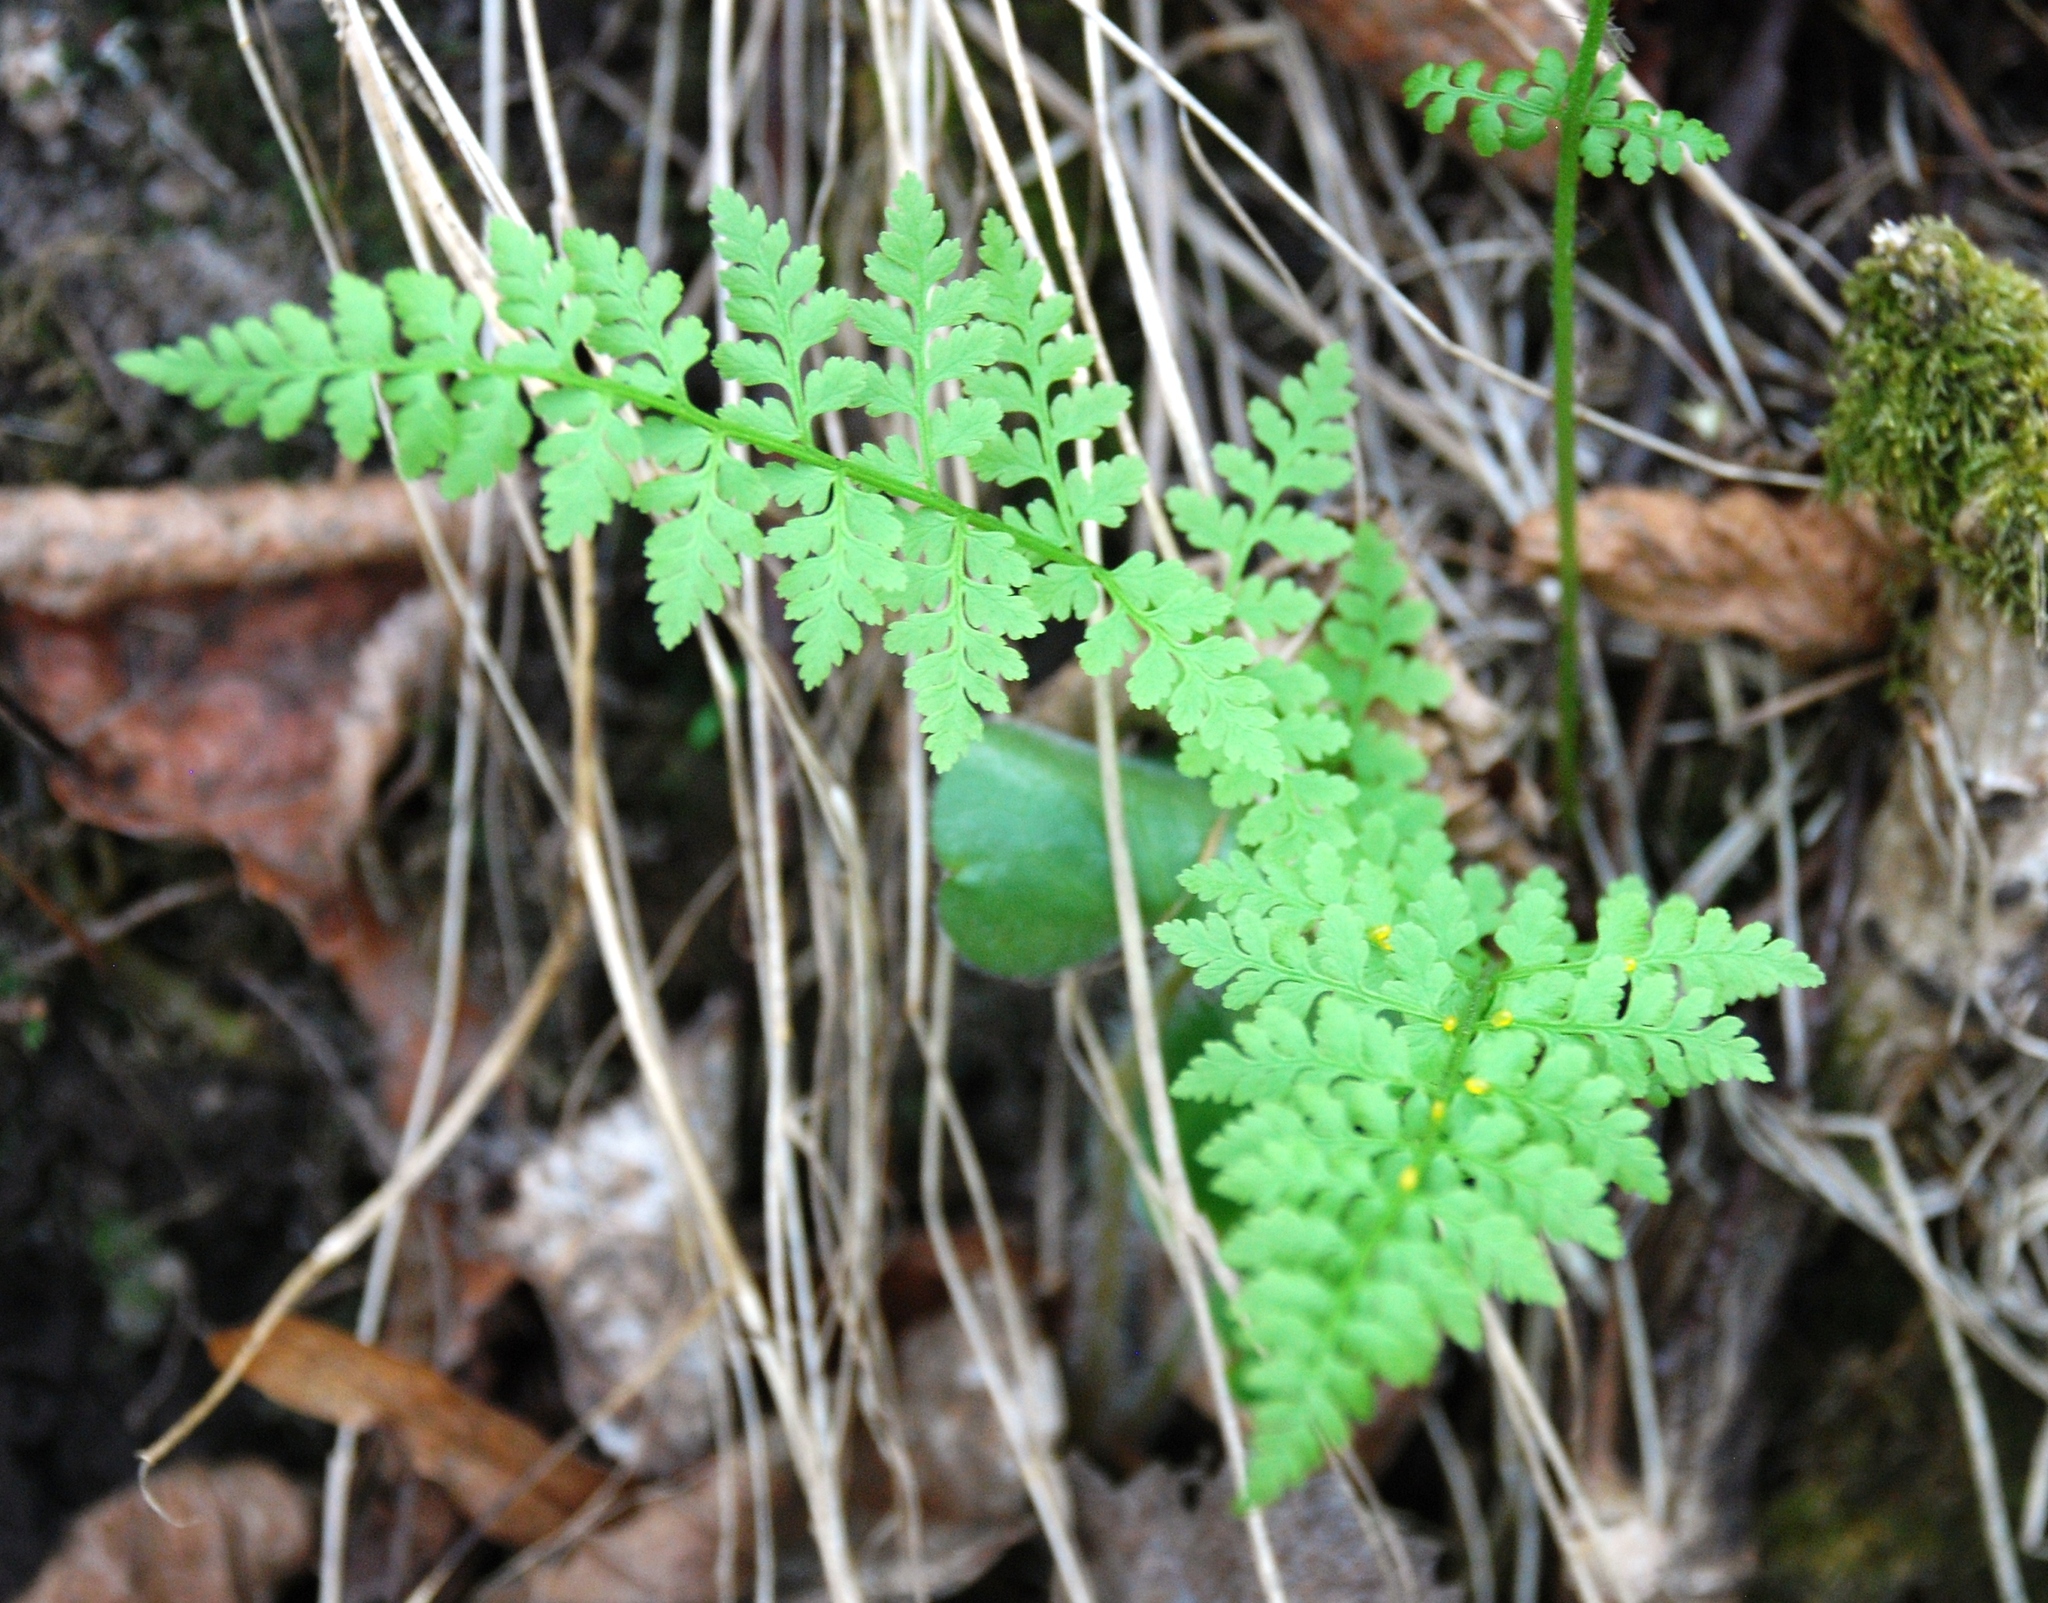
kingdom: Plantae
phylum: Tracheophyta
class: Polypodiopsida
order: Polypodiales
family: Cystopteridaceae
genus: Cystopteris
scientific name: Cystopteris fragilis
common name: Brittle bladder fern
